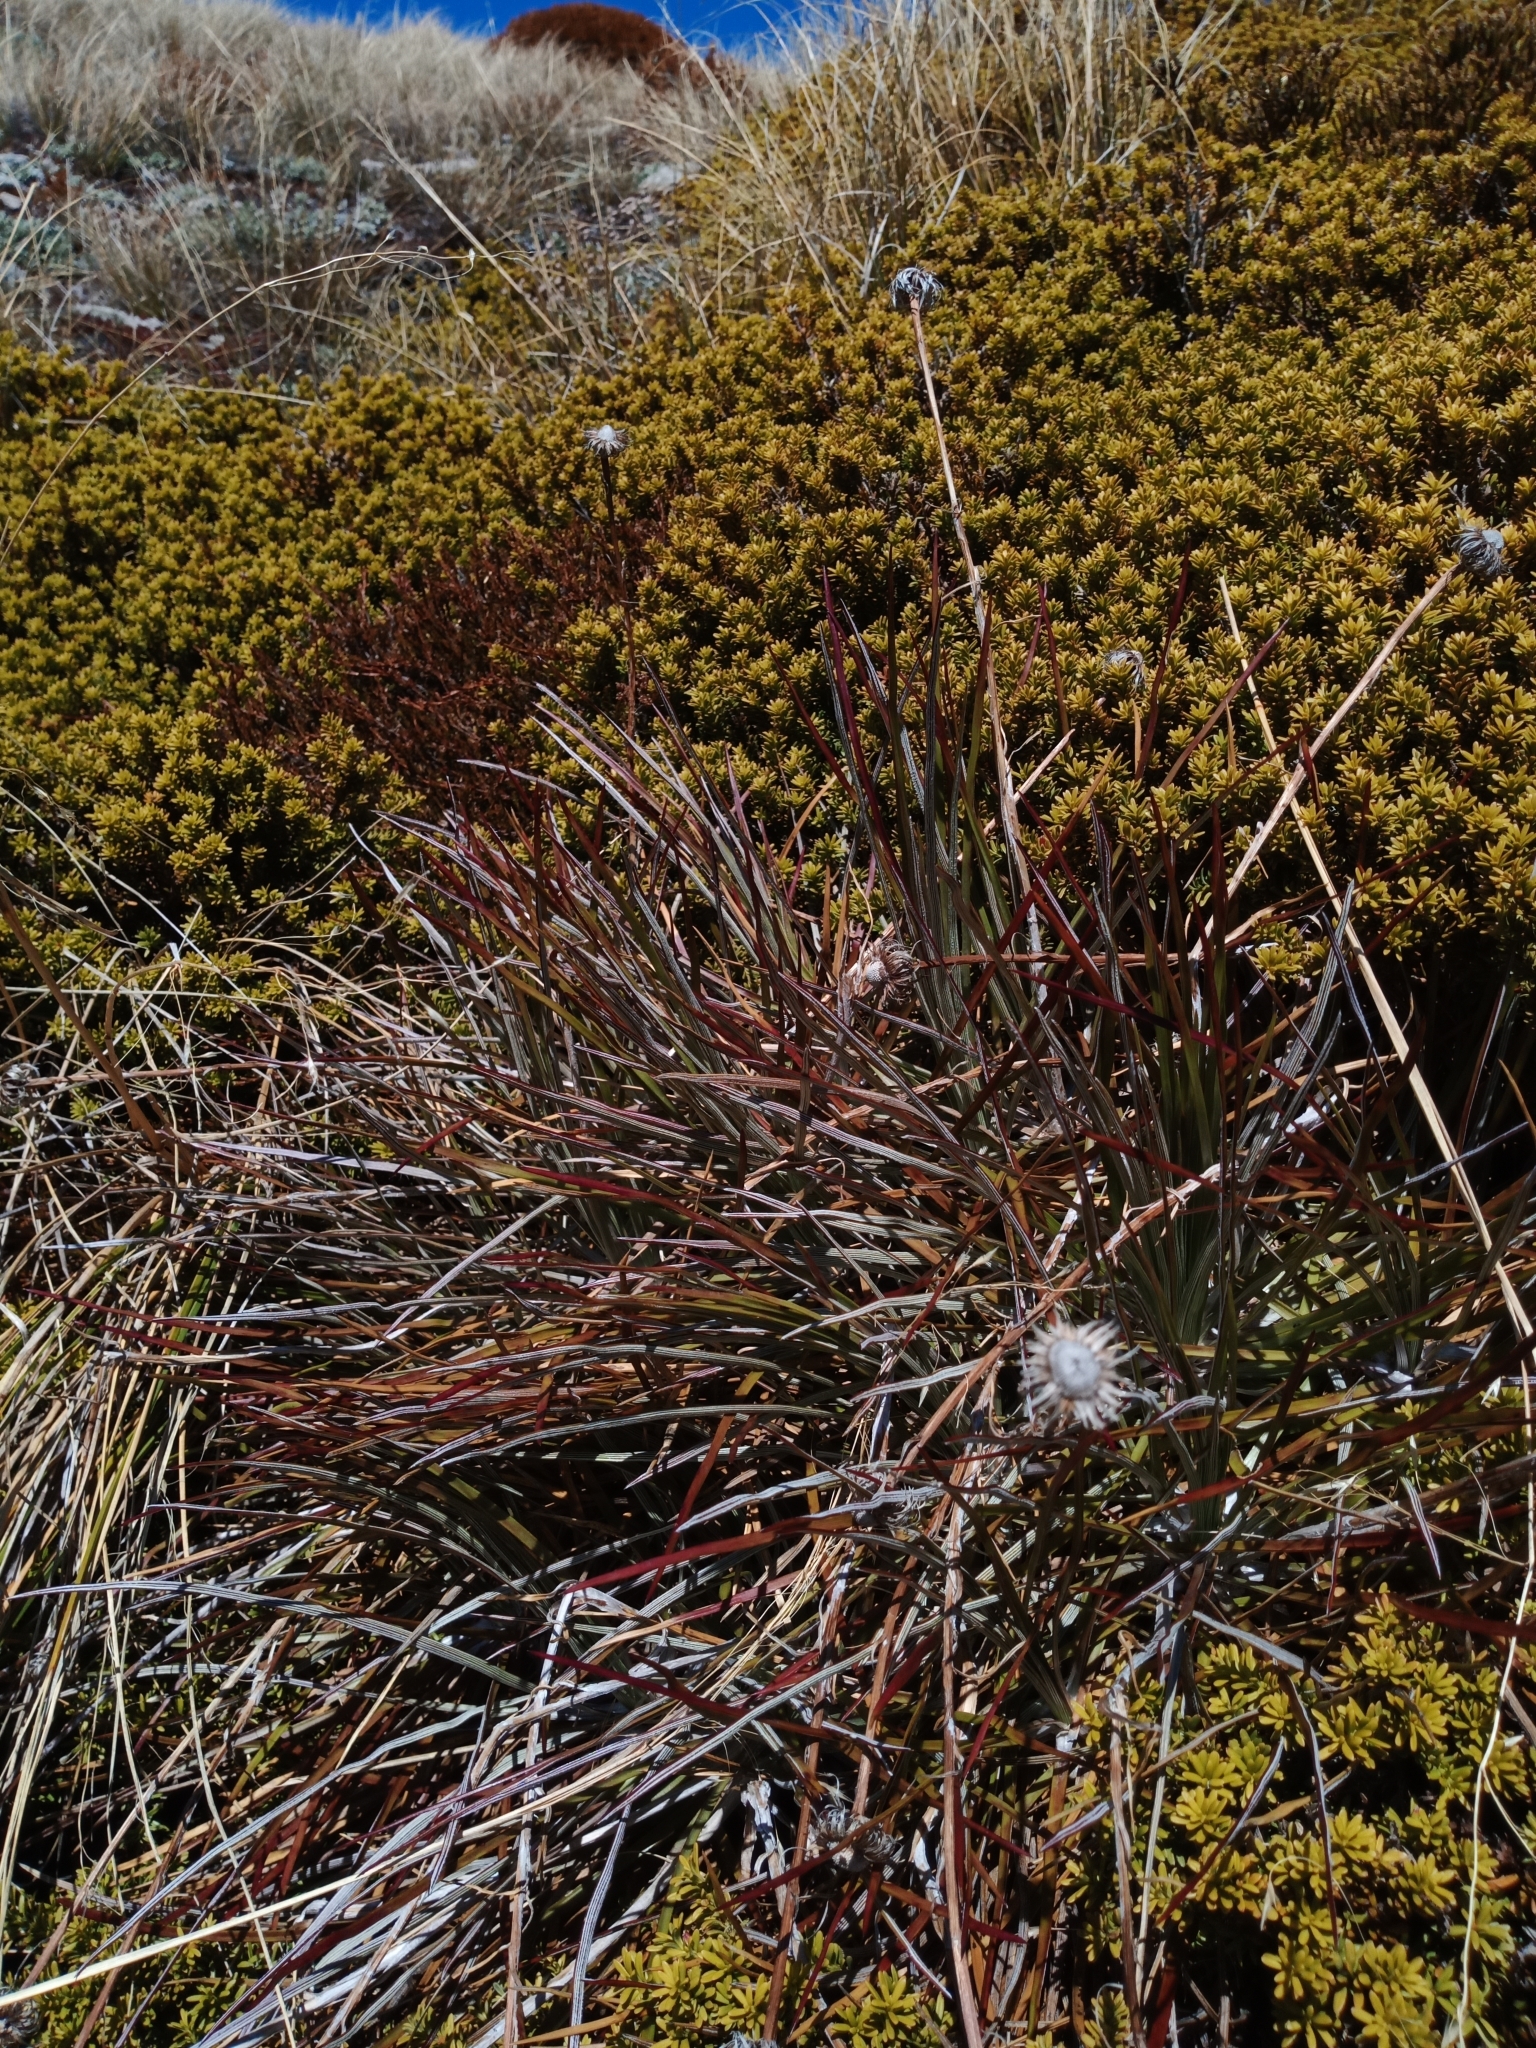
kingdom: Plantae
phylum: Tracheophyta
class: Magnoliopsida
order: Asterales
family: Asteraceae
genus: Celmisia
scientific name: Celmisia gracilenta
